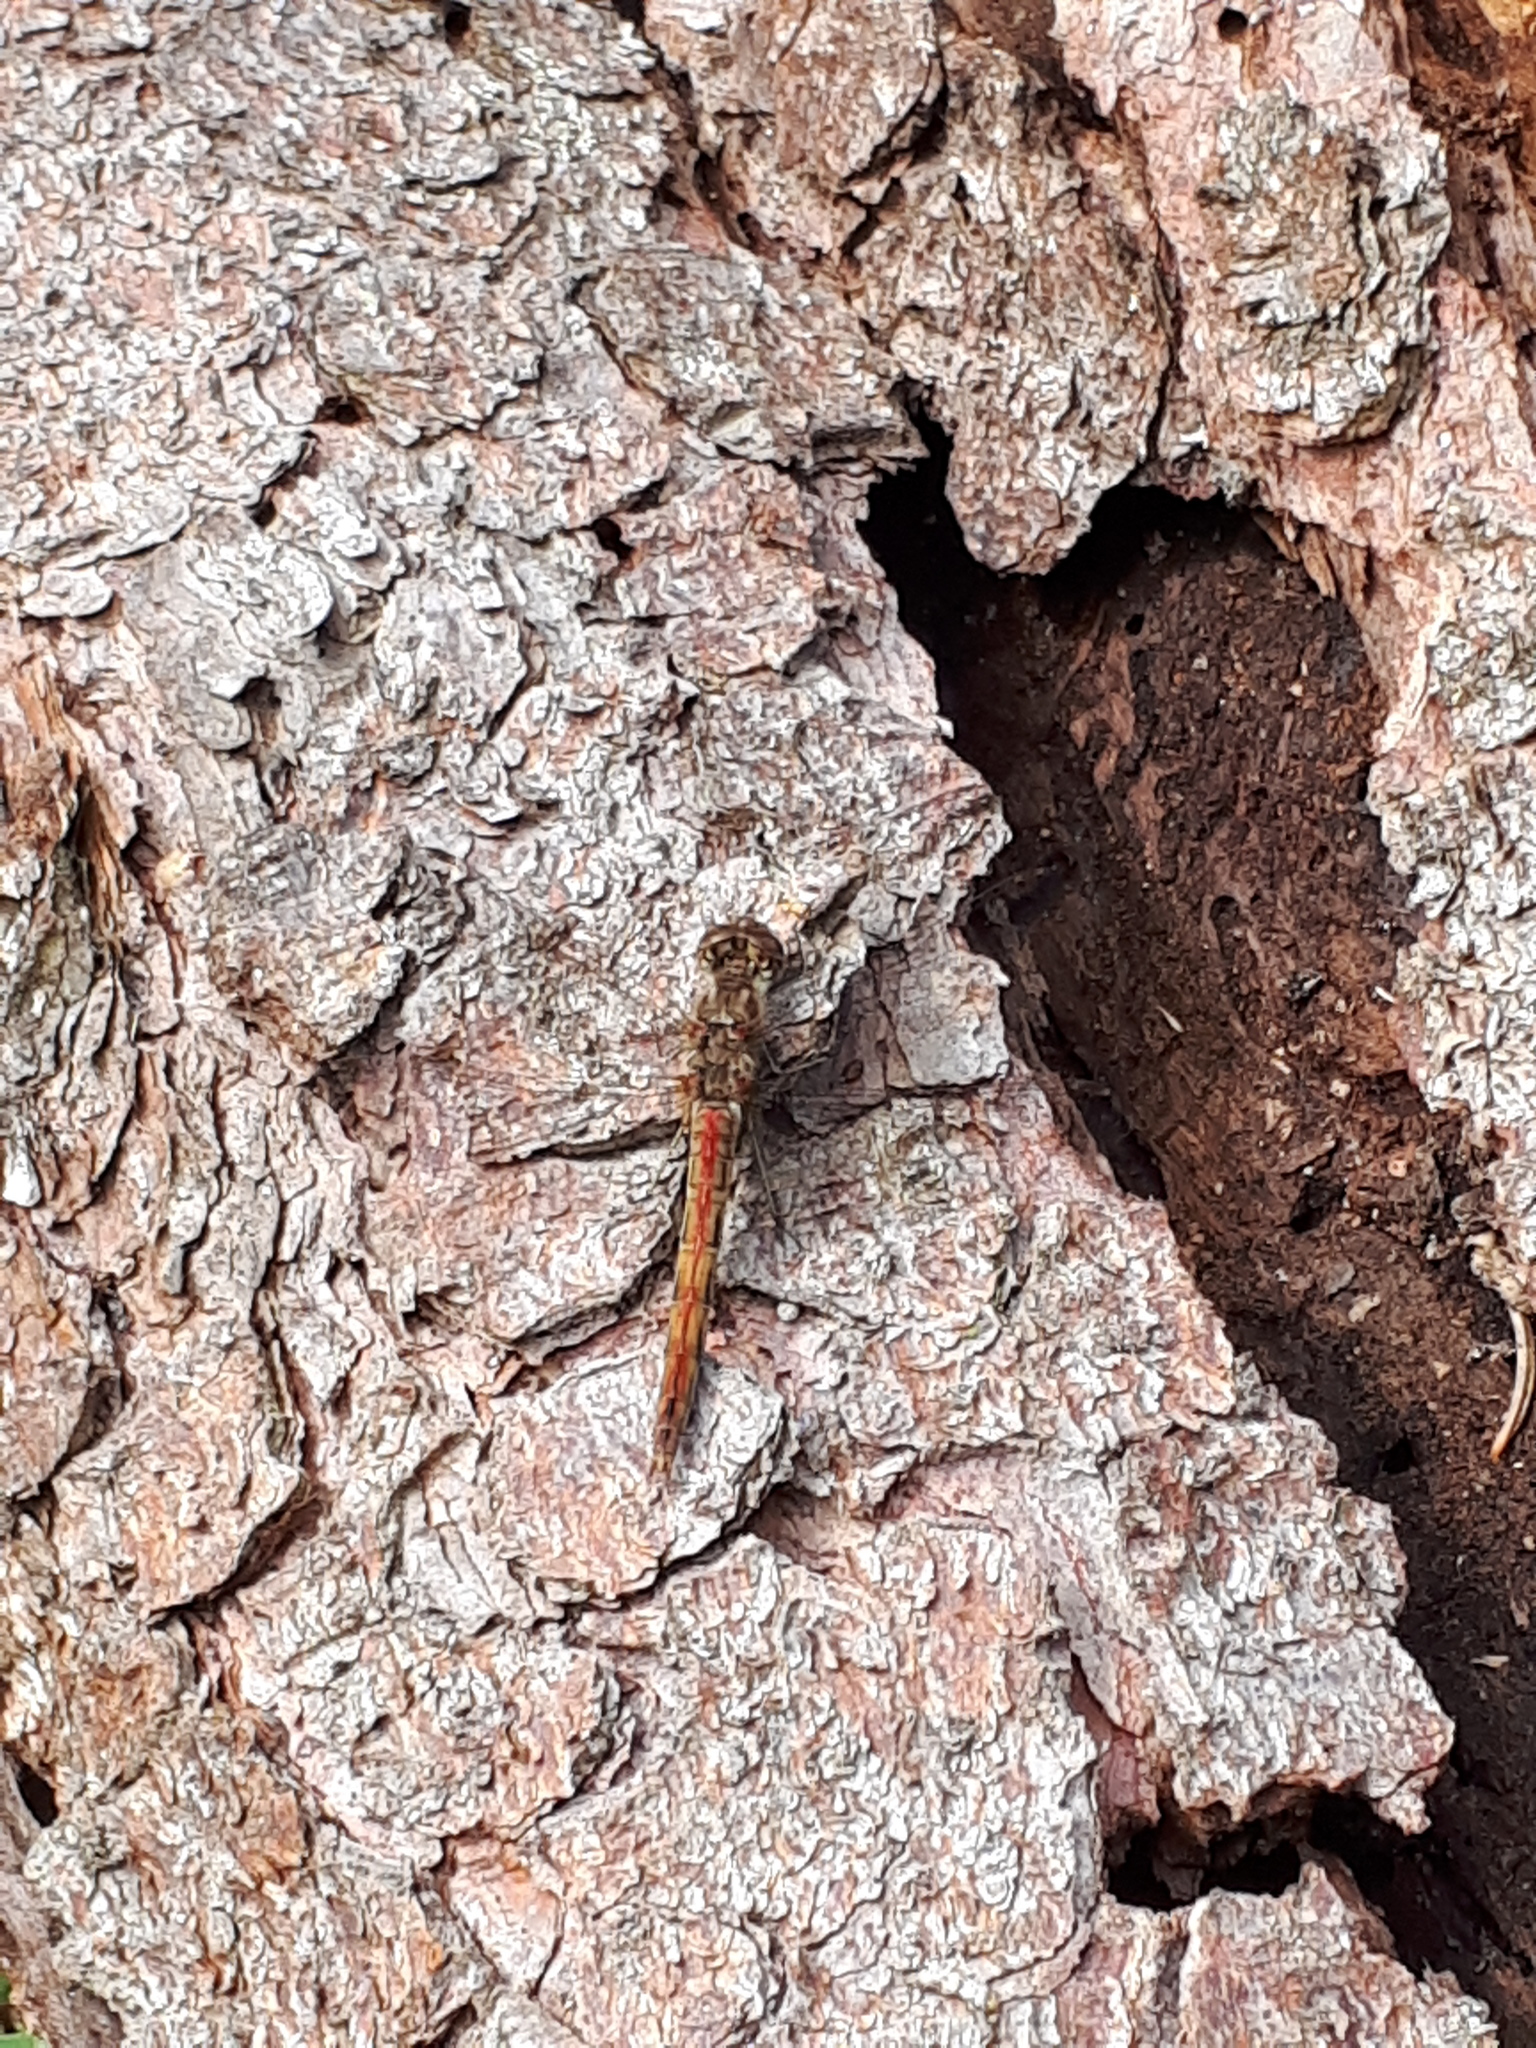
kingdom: Animalia
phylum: Arthropoda
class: Insecta
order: Odonata
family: Libellulidae
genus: Sympetrum
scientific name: Sympetrum striolatum
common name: Common darter
